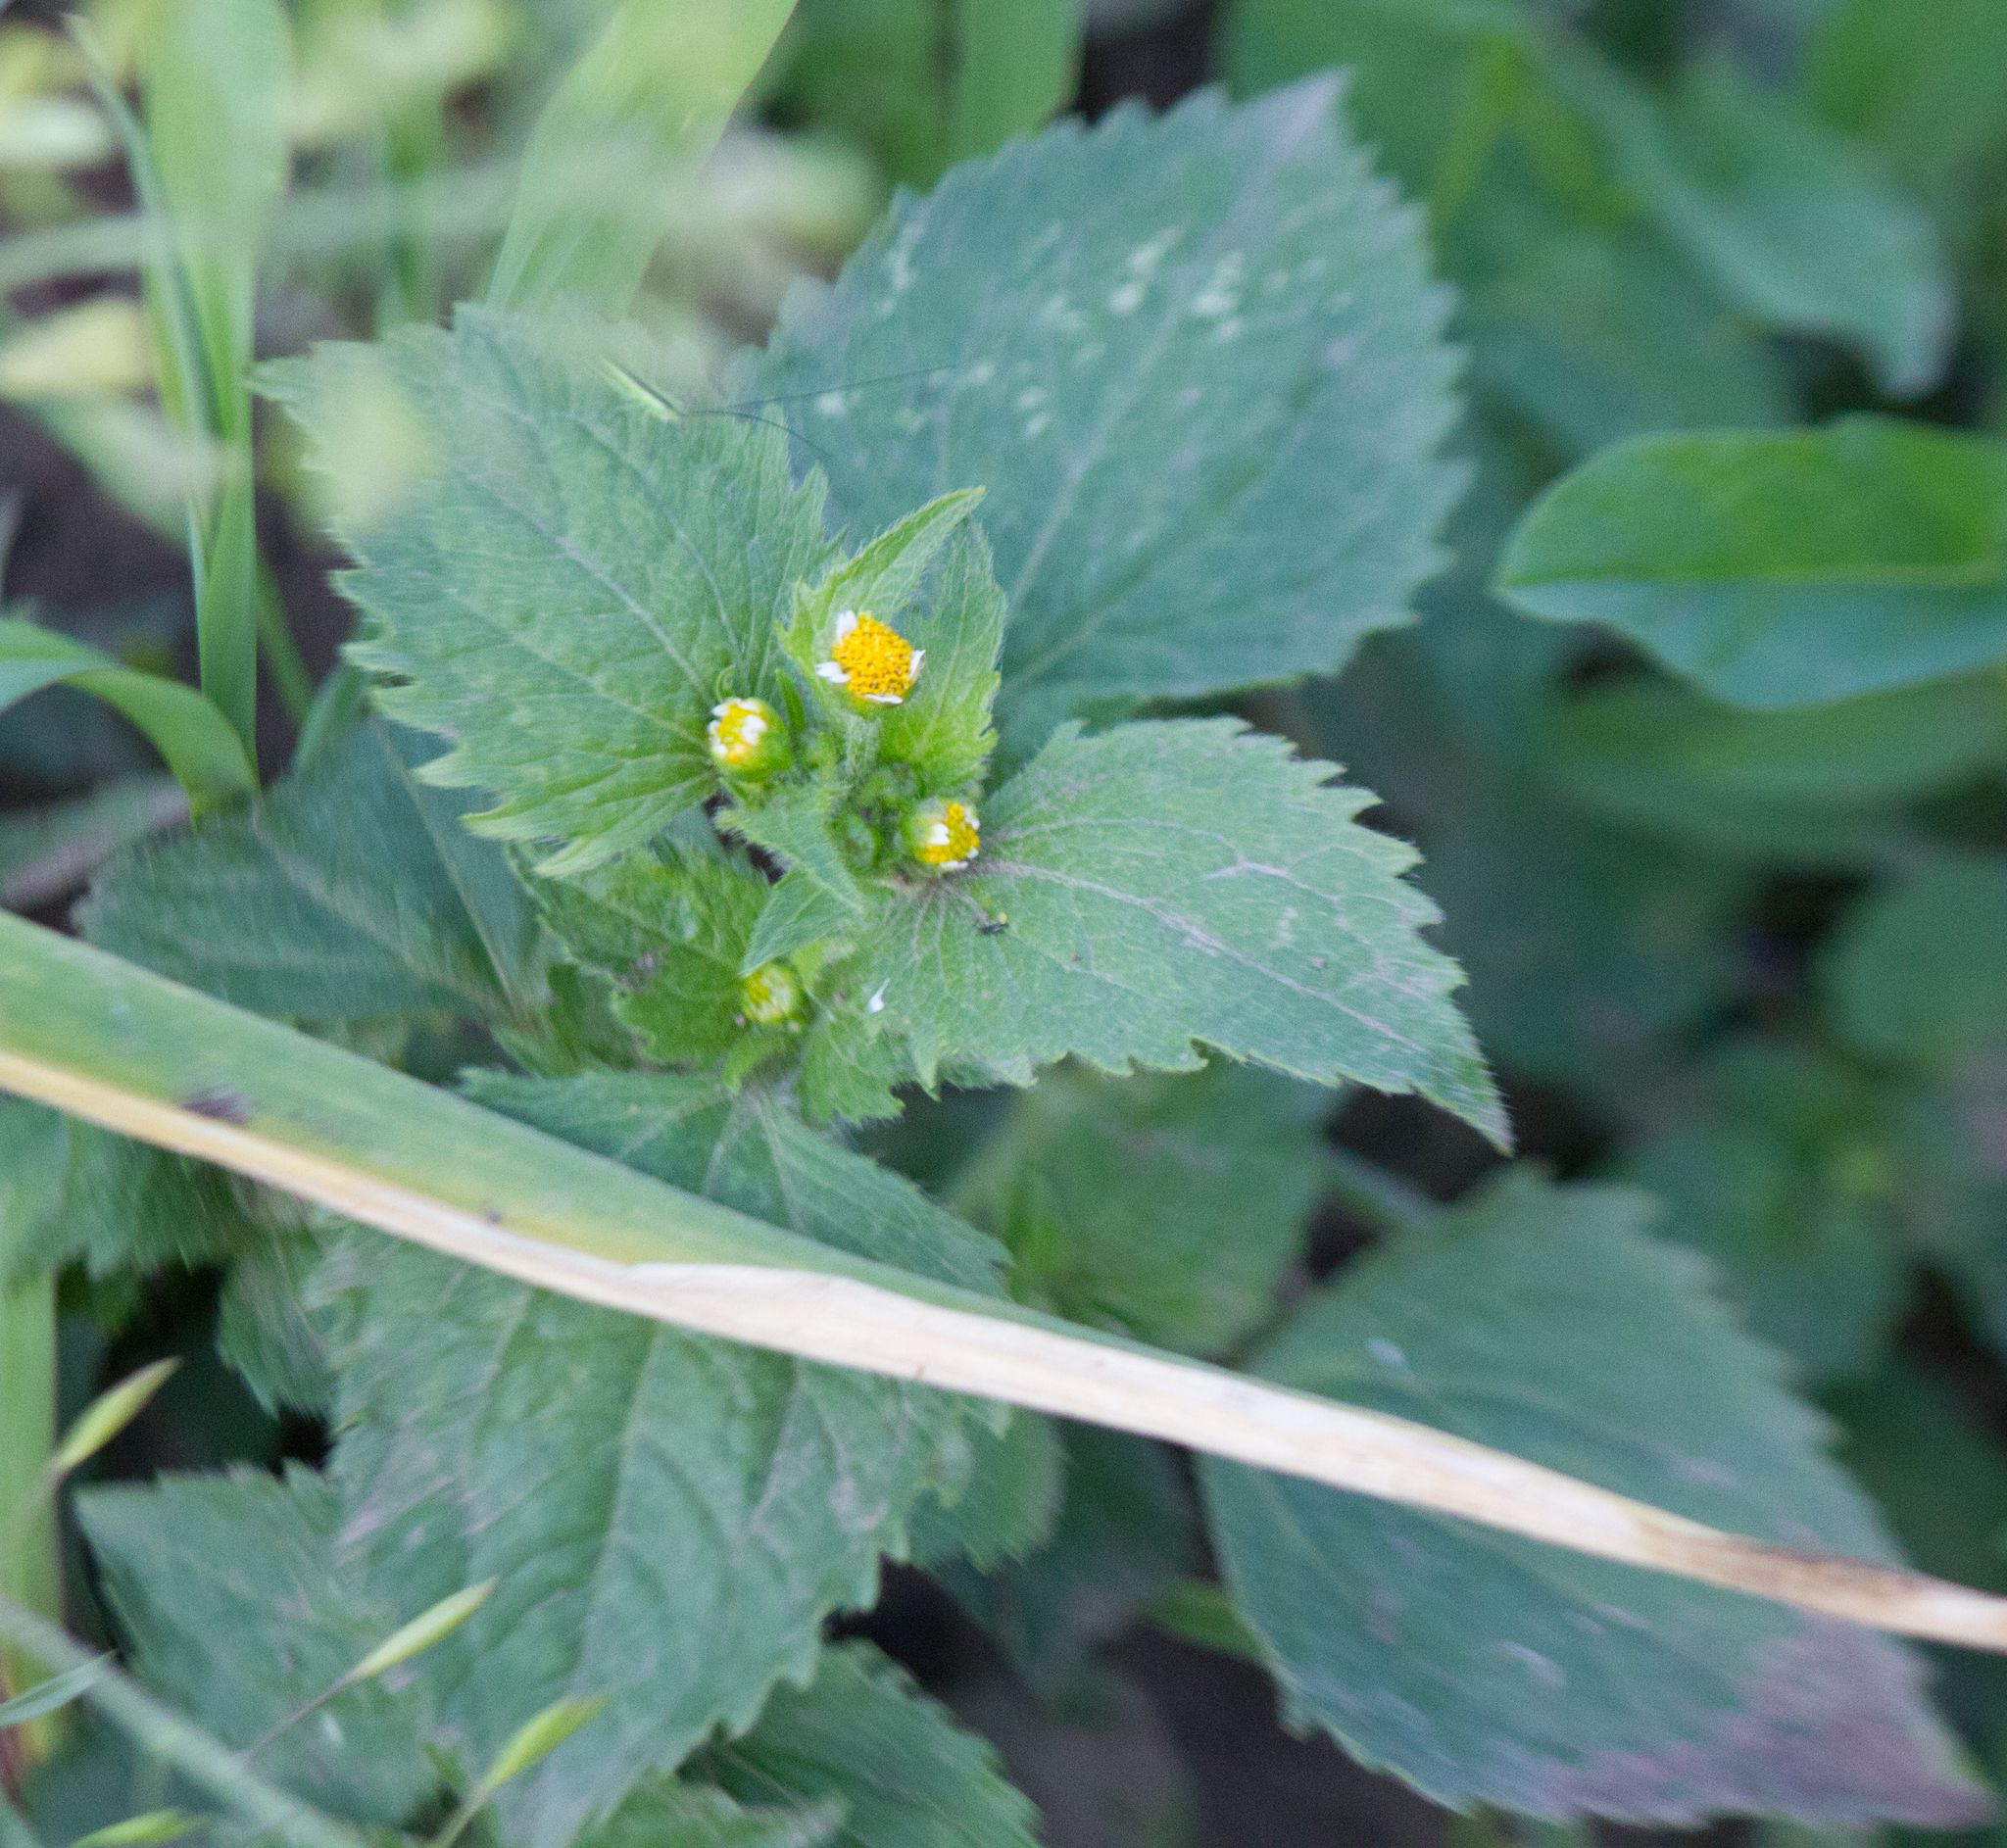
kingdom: Plantae
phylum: Tracheophyta
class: Magnoliopsida
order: Asterales
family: Asteraceae
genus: Galinsoga
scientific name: Galinsoga quadriradiata
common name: Shaggy soldier
